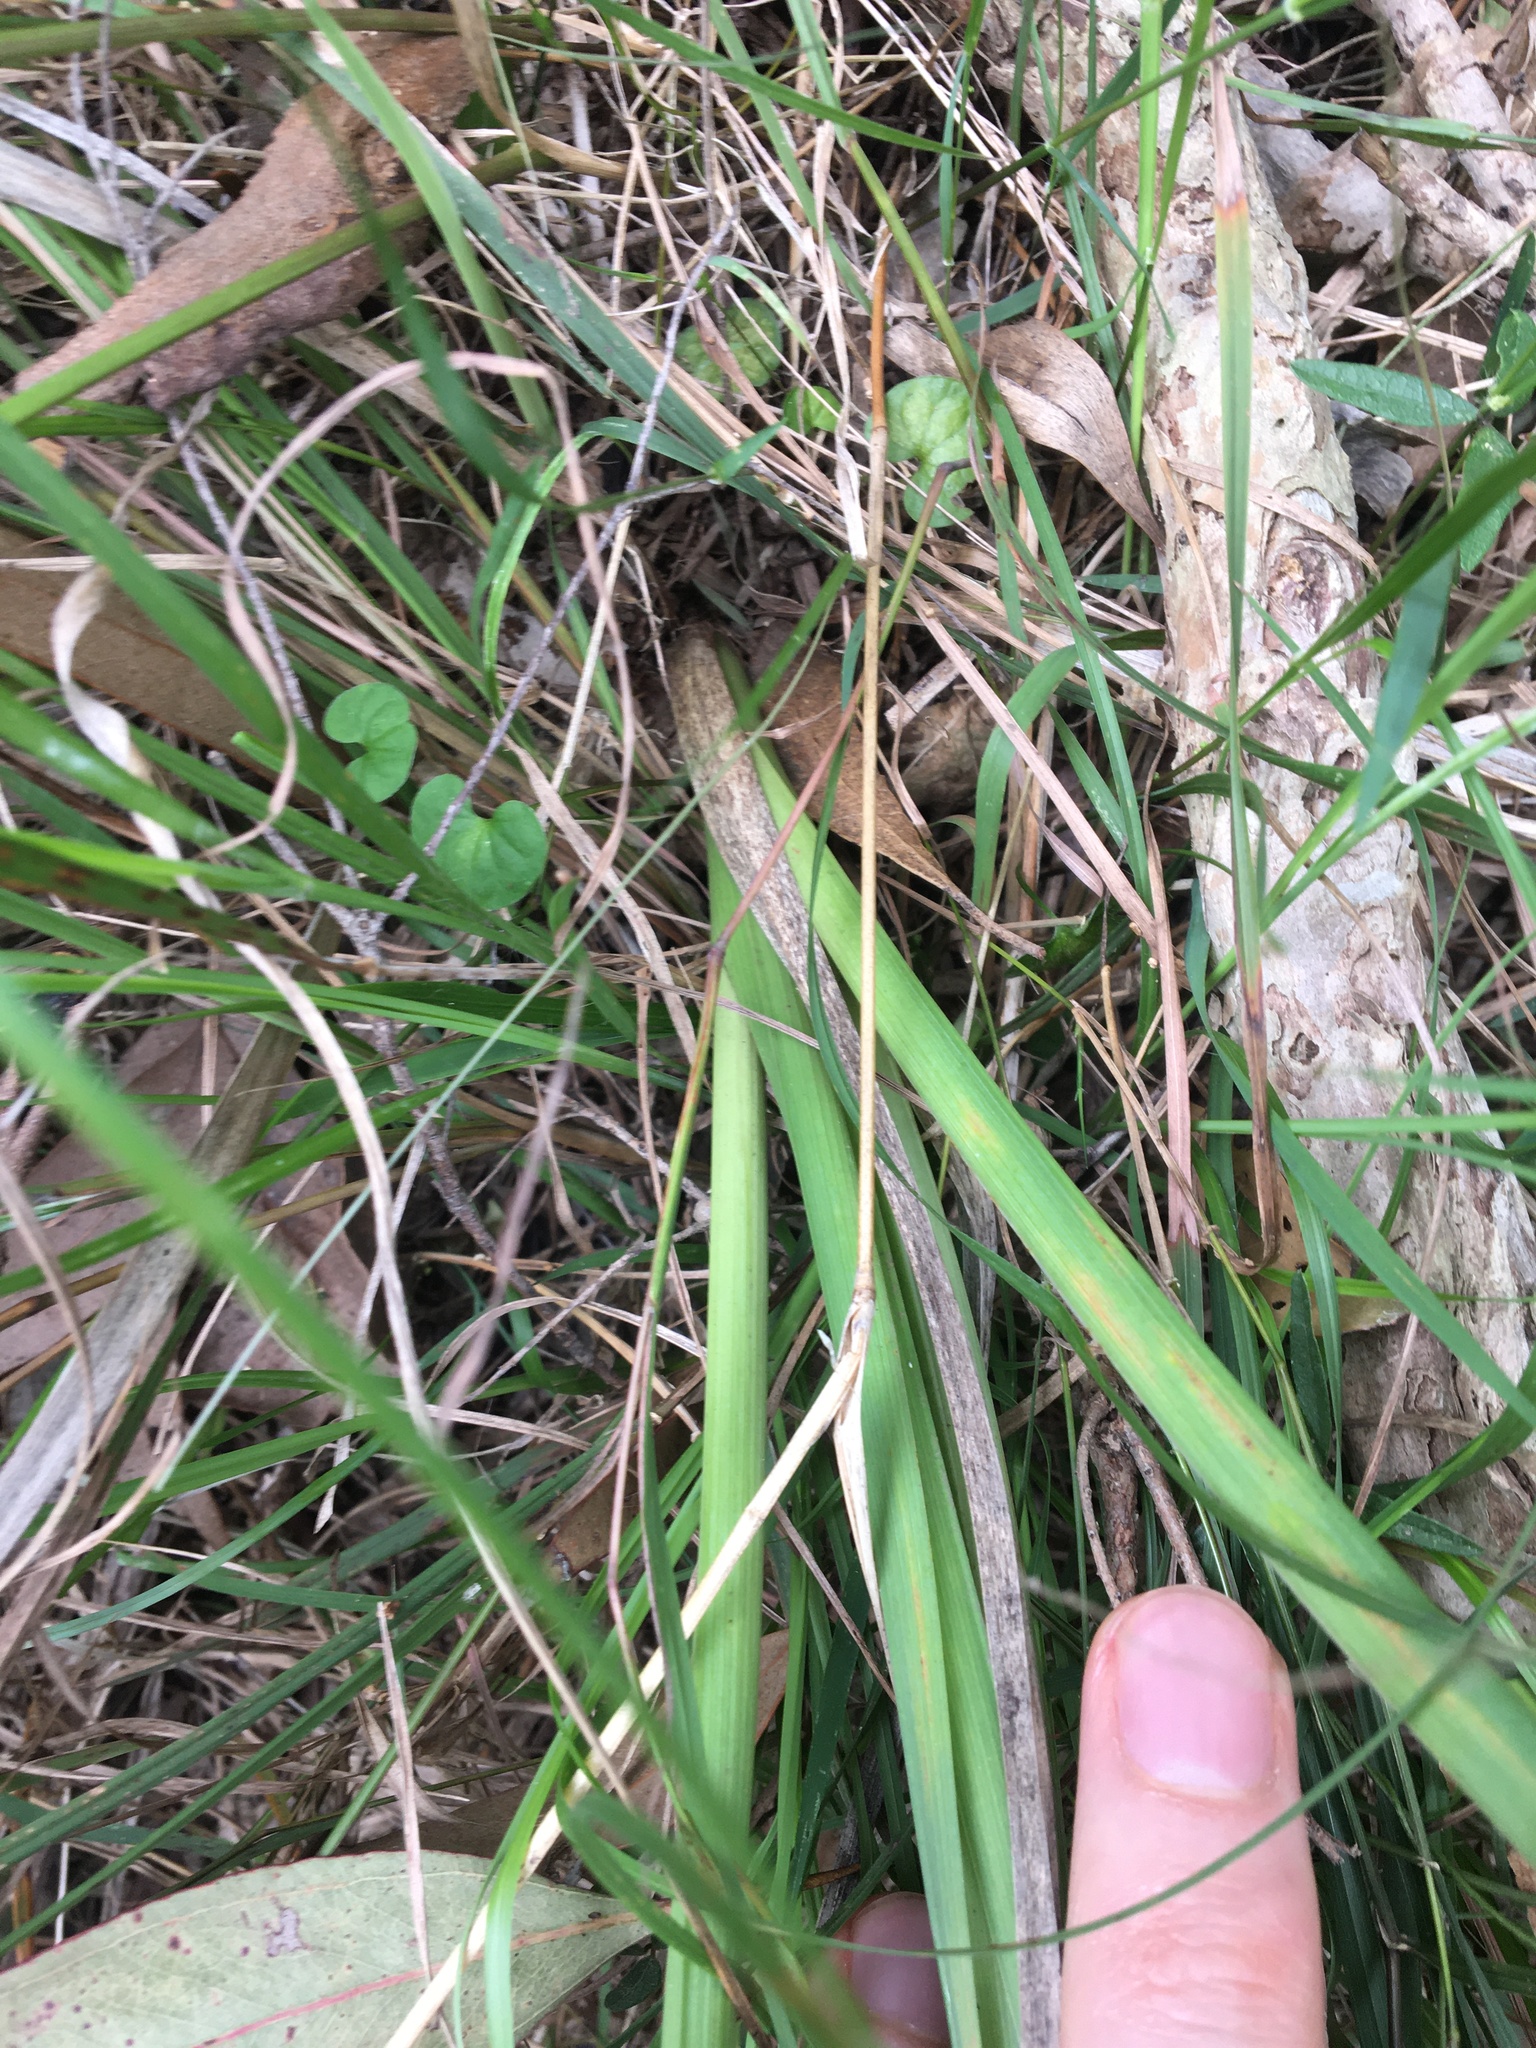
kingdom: Plantae
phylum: Tracheophyta
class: Liliopsida
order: Asparagales
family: Asphodelaceae
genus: Dianella
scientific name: Dianella longifolia
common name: Blue flax-lily
